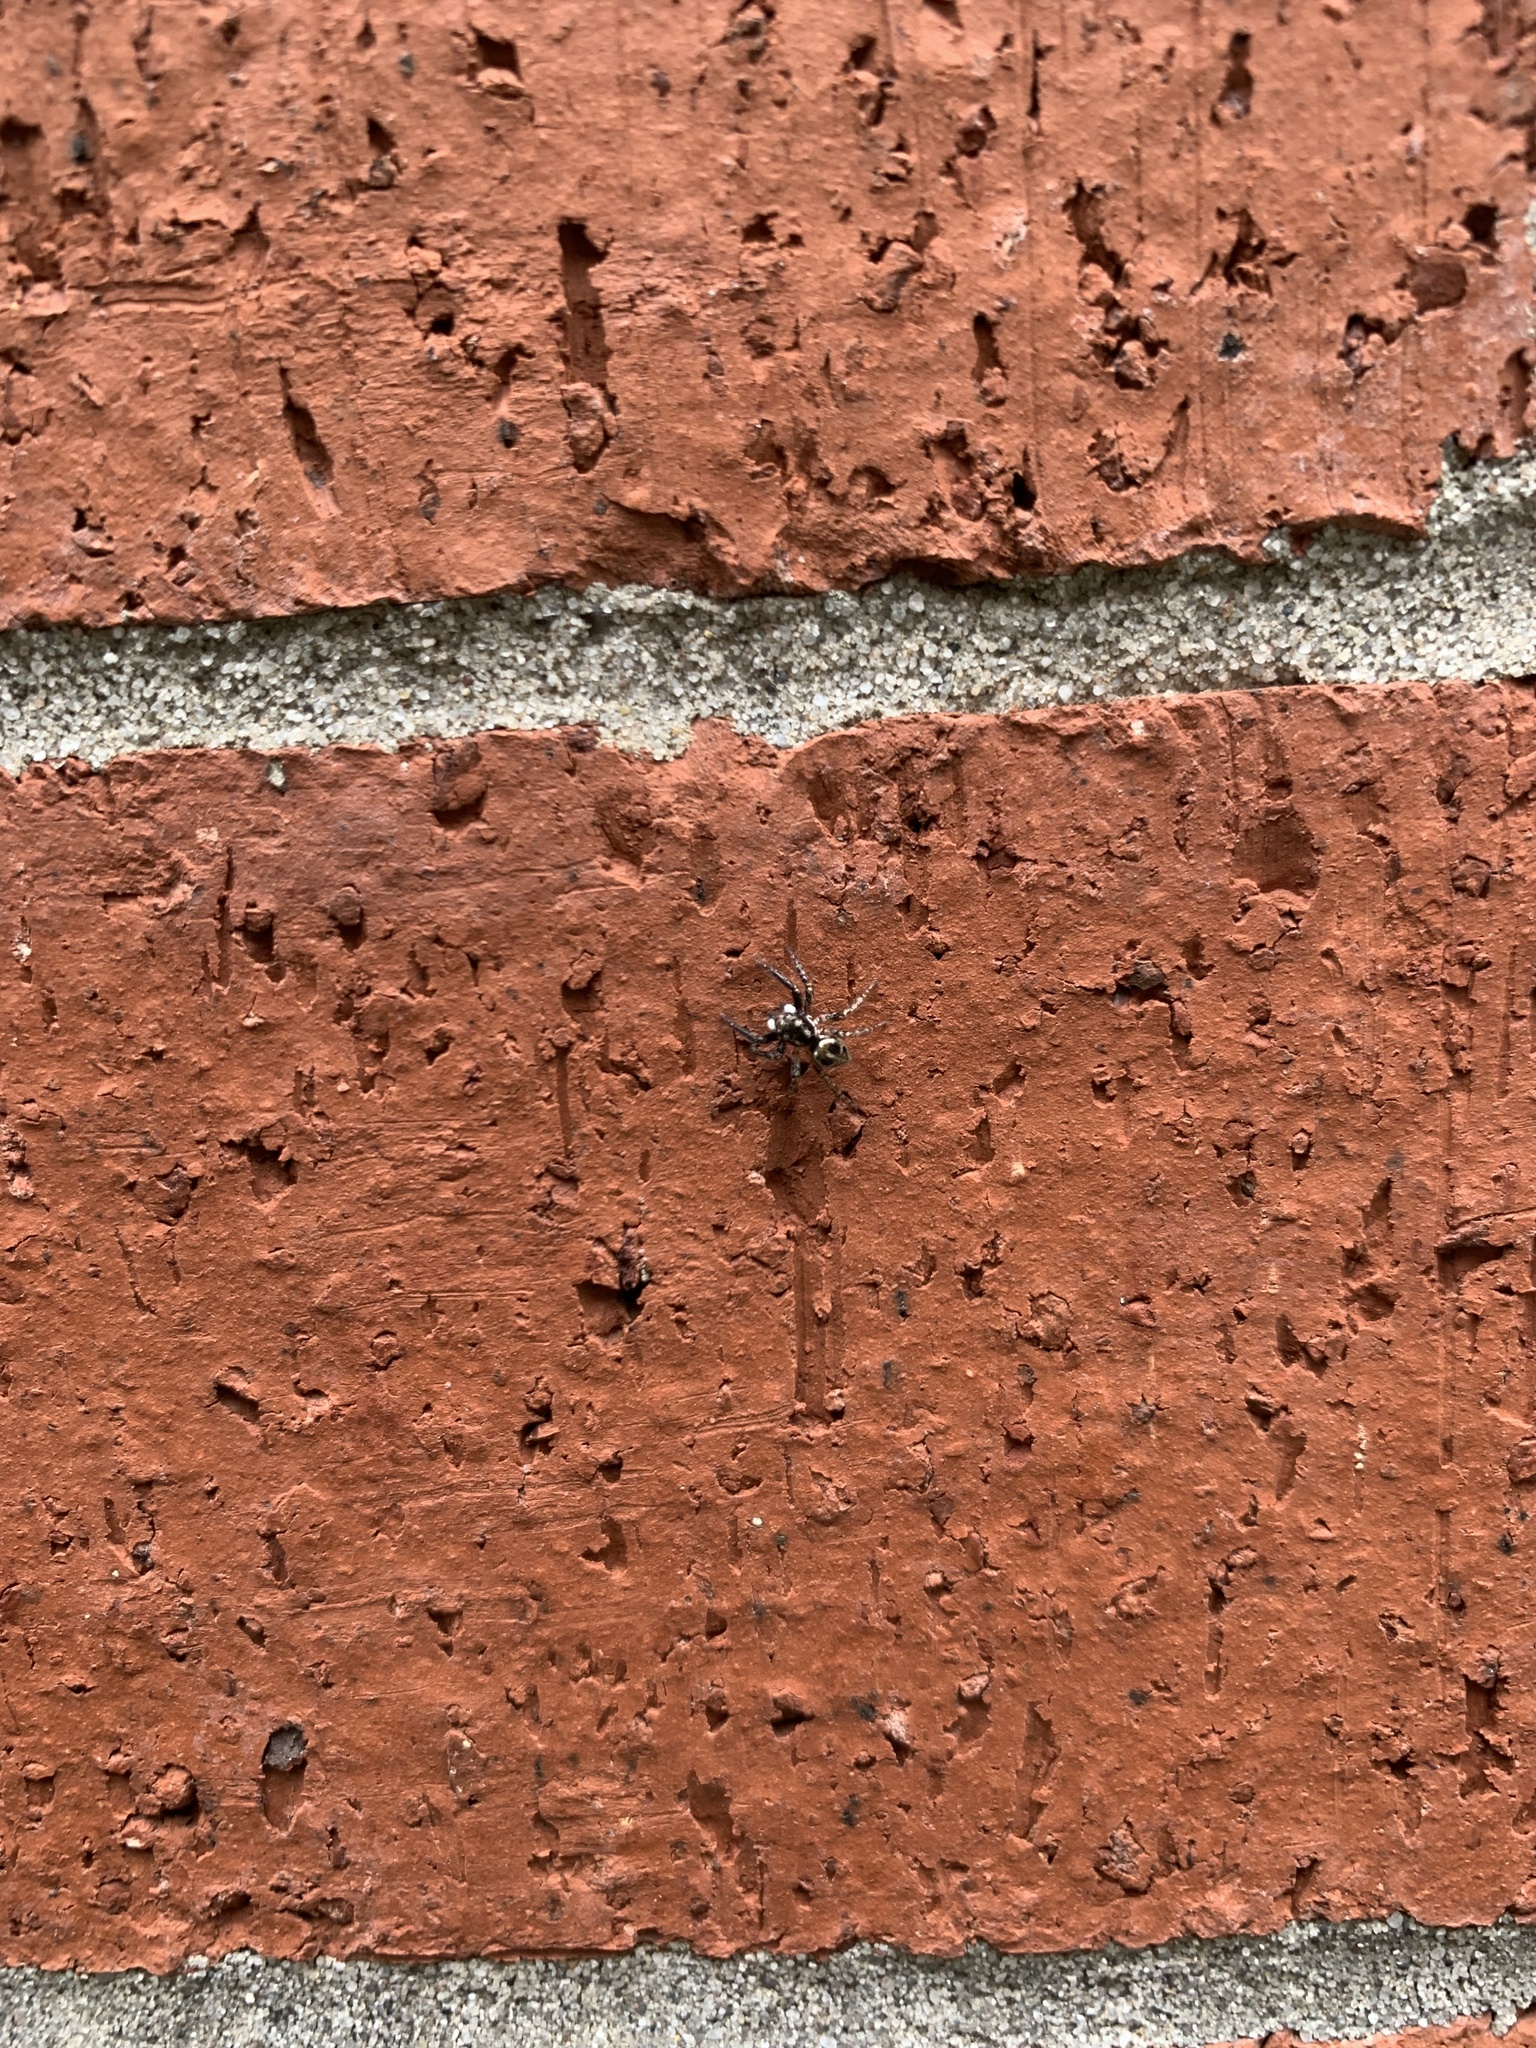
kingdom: Animalia
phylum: Arthropoda
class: Arachnida
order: Araneae
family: Salticidae
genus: Anasaitis
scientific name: Anasaitis canosa
